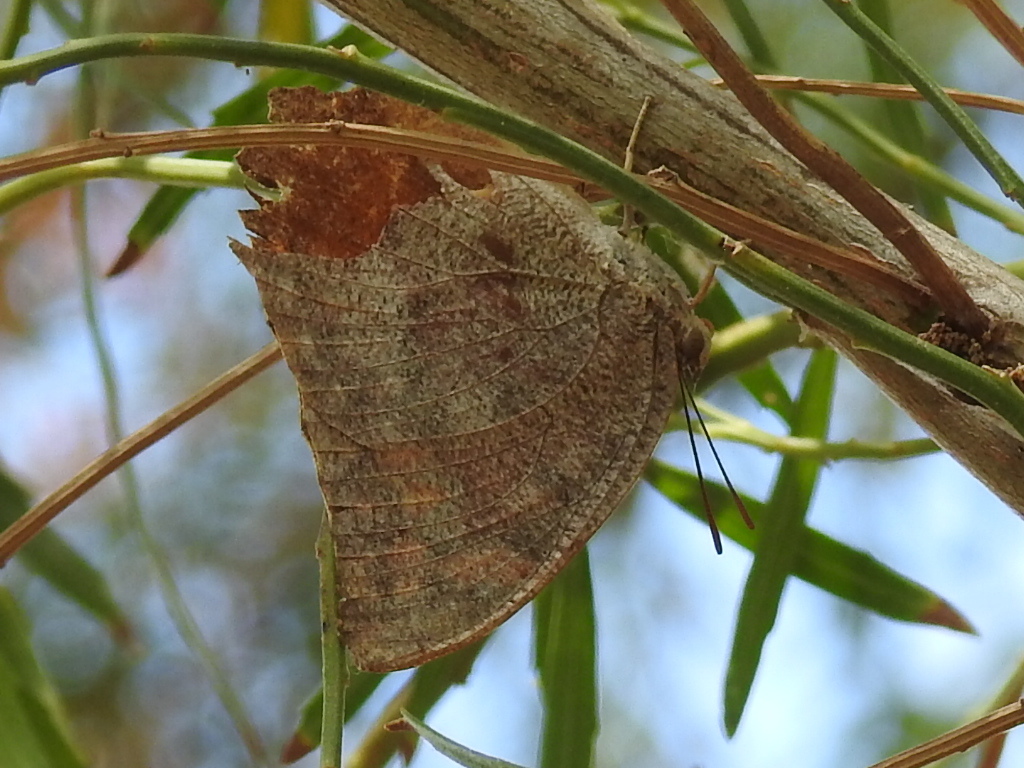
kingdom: Animalia
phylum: Arthropoda
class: Insecta
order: Lepidoptera
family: Nymphalidae
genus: Anaea
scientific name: Anaea andria
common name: Goatweed leafwing
